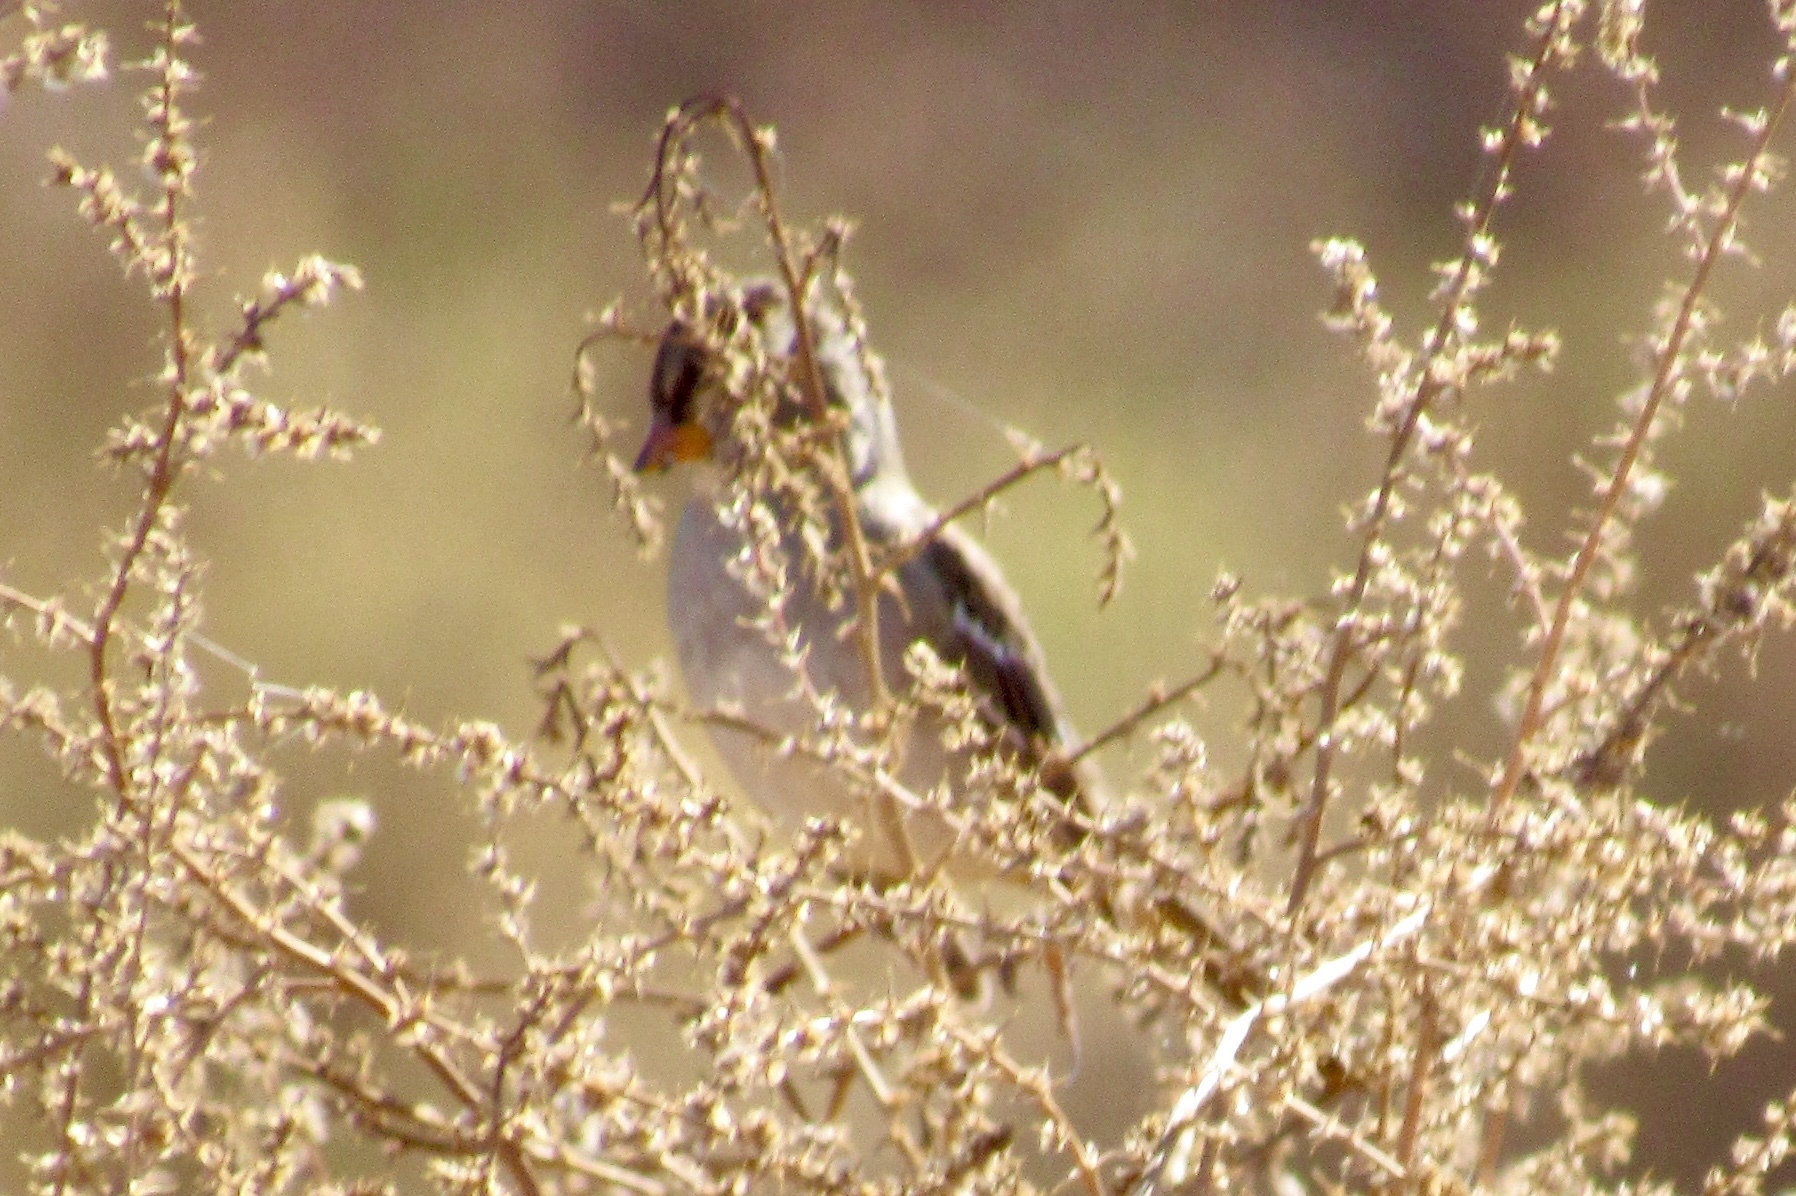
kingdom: Animalia
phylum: Chordata
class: Aves
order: Passeriformes
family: Passerellidae
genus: Zonotrichia
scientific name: Zonotrichia leucophrys
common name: White-crowned sparrow
